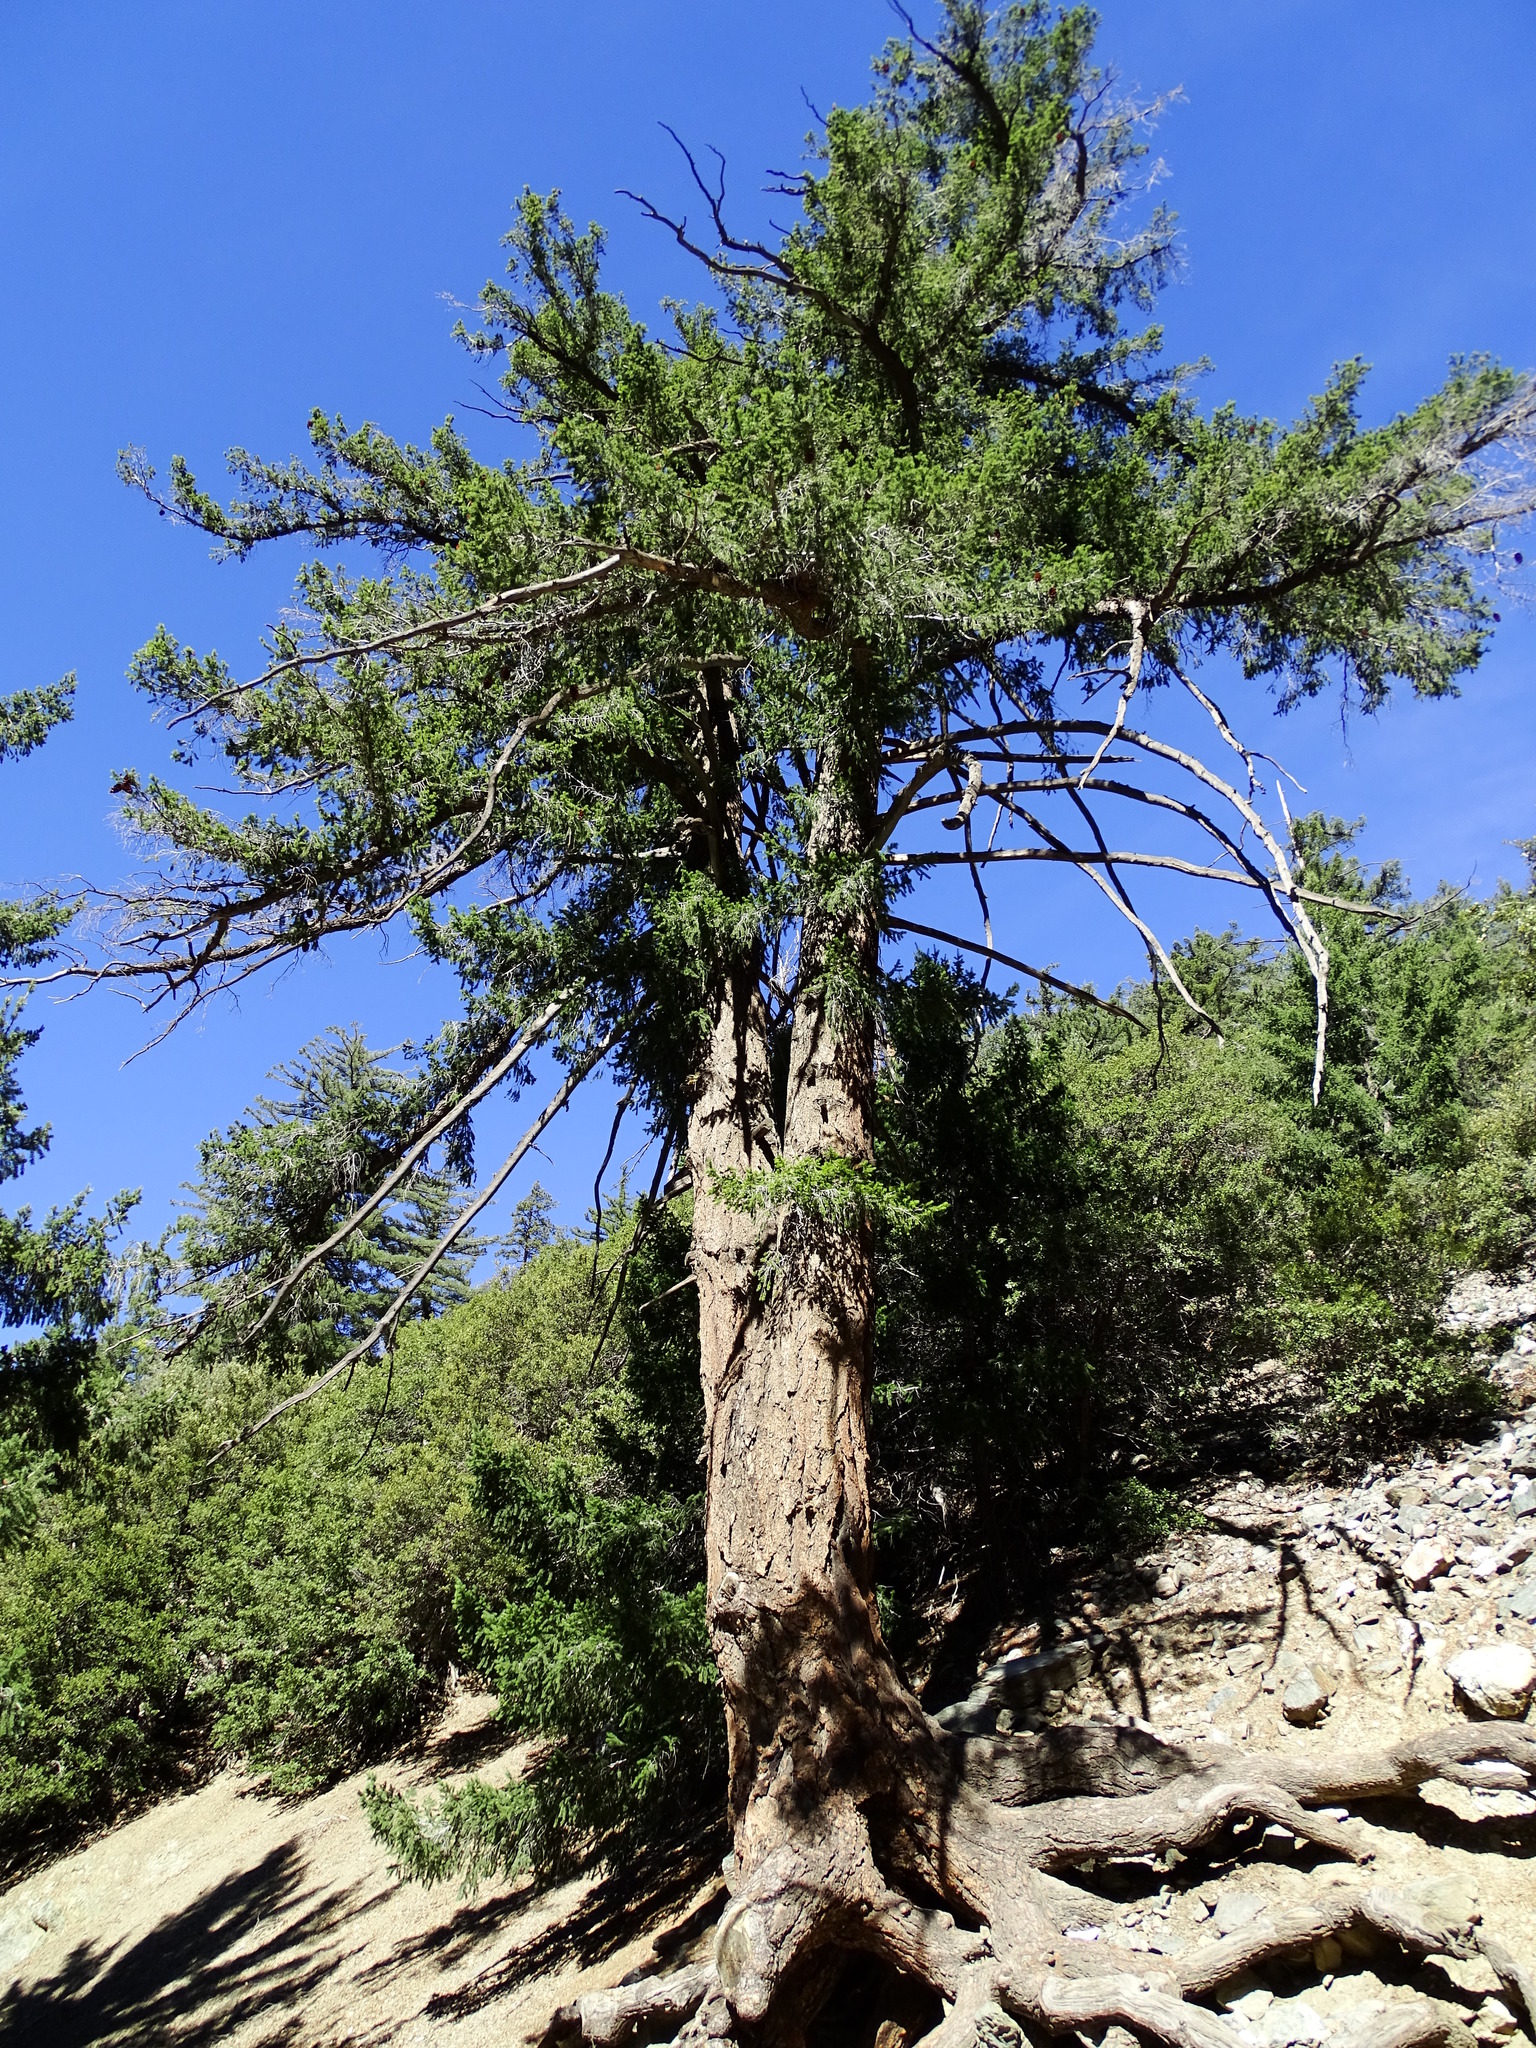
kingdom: Plantae
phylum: Tracheophyta
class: Pinopsida
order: Pinales
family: Pinaceae
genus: Pseudotsuga
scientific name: Pseudotsuga macrocarpa
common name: Big-cone douglas-fir
